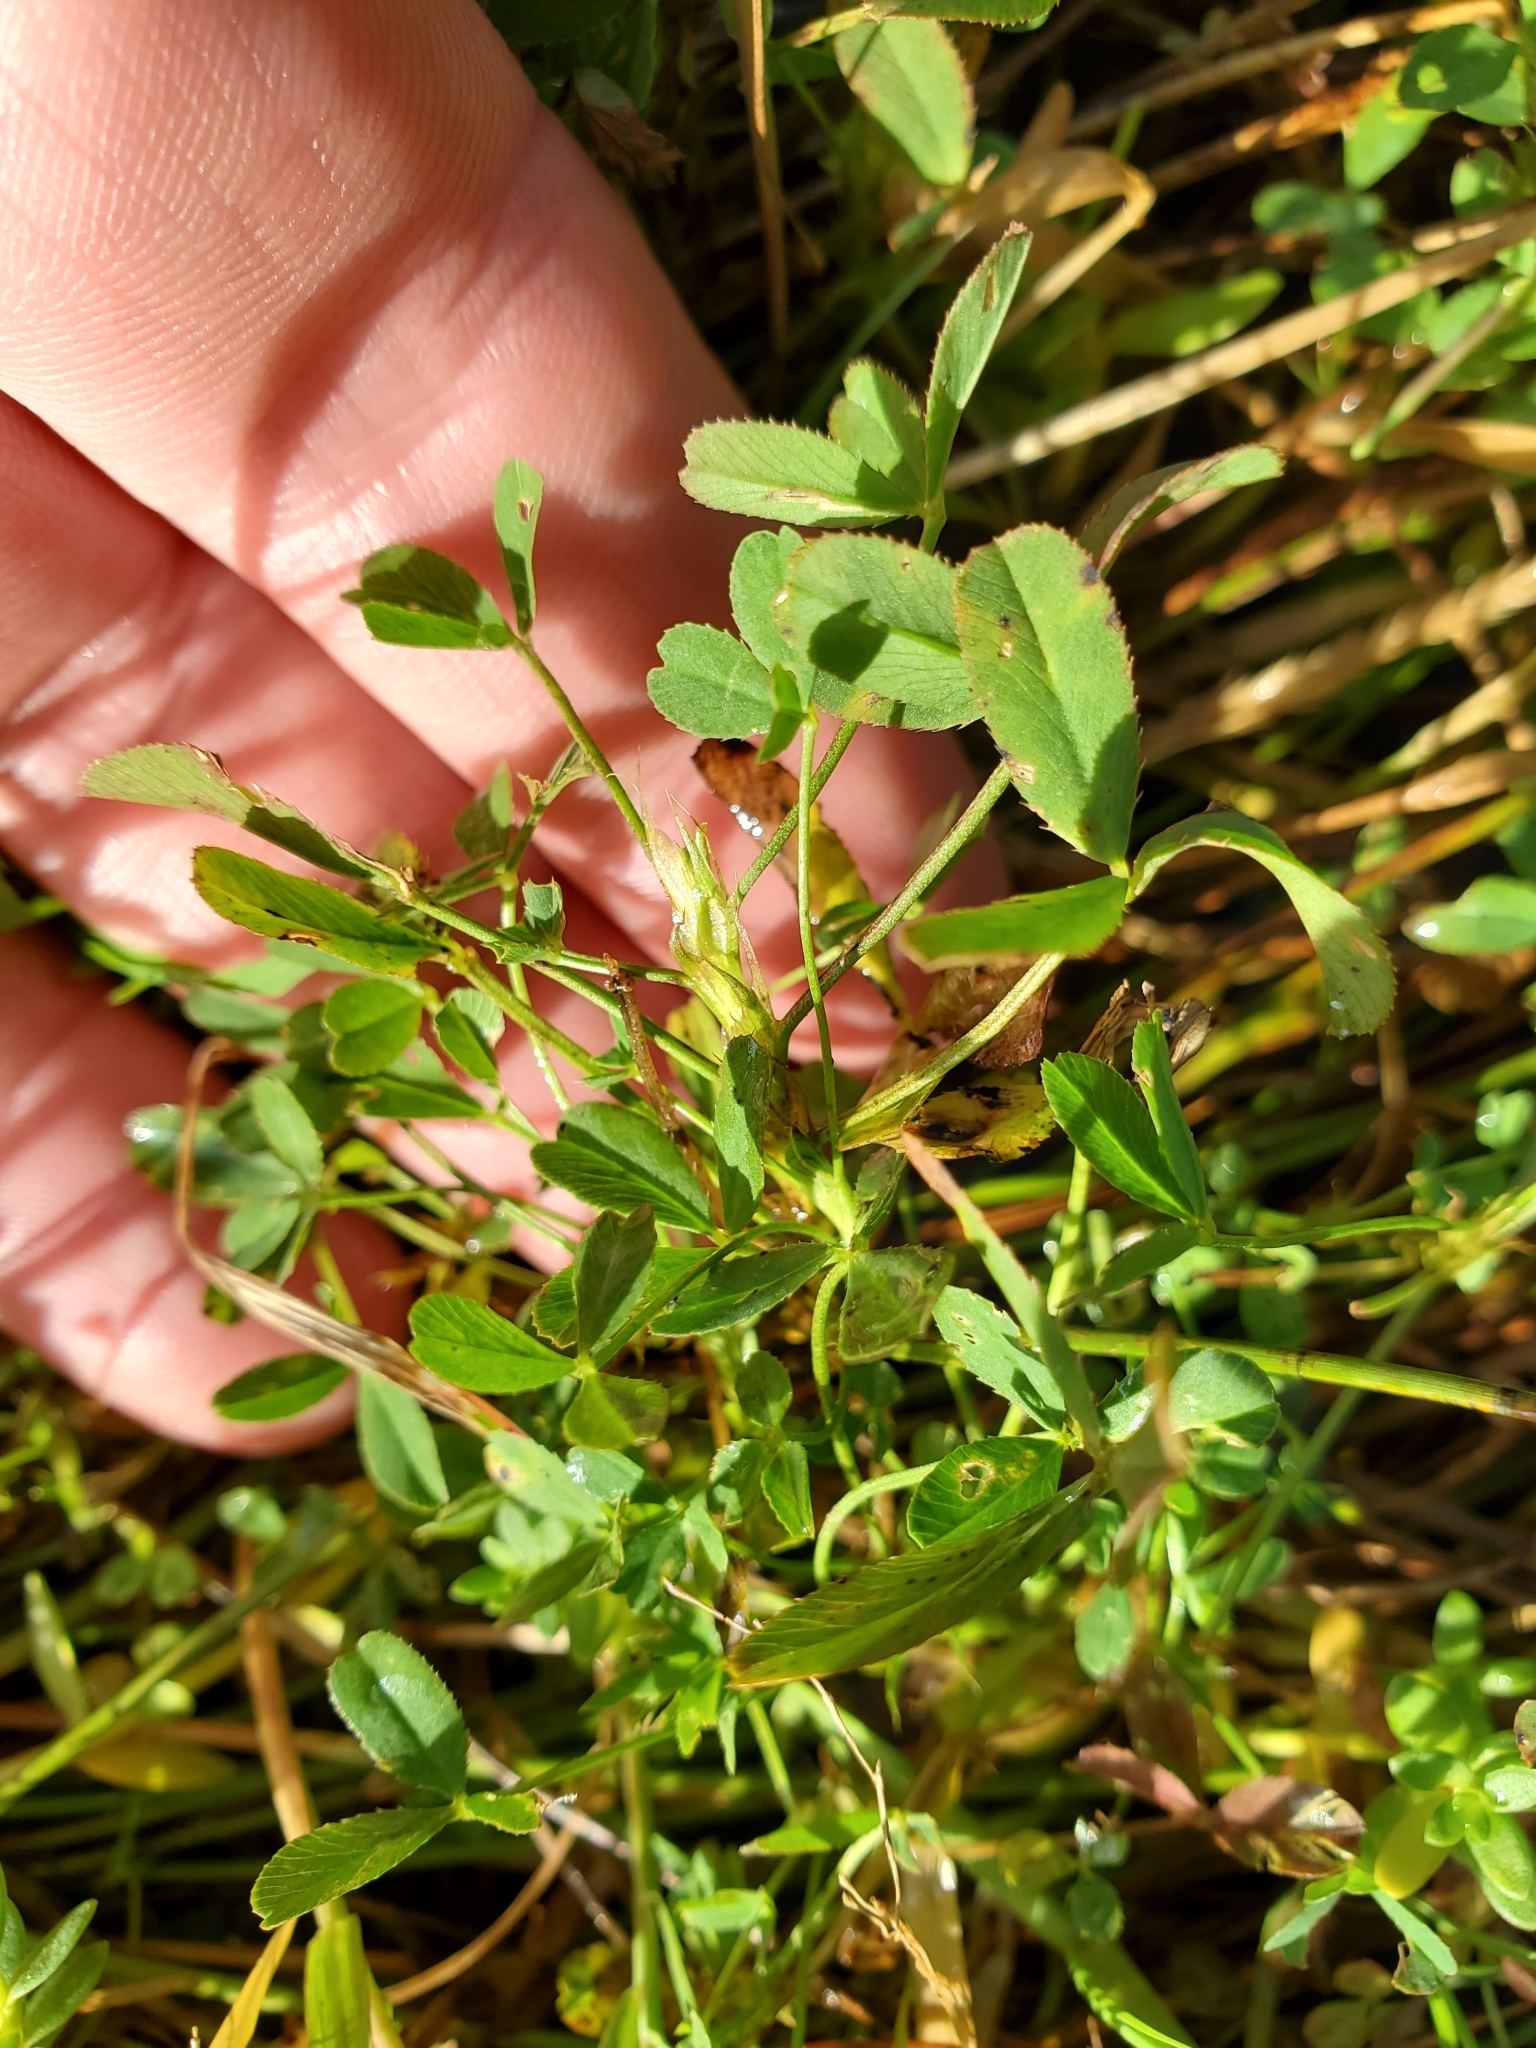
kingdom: Plantae
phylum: Tracheophyta
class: Magnoliopsida
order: Fabales
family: Fabaceae
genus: Trifolium
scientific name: Trifolium wormskioldii
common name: Springbank clover
